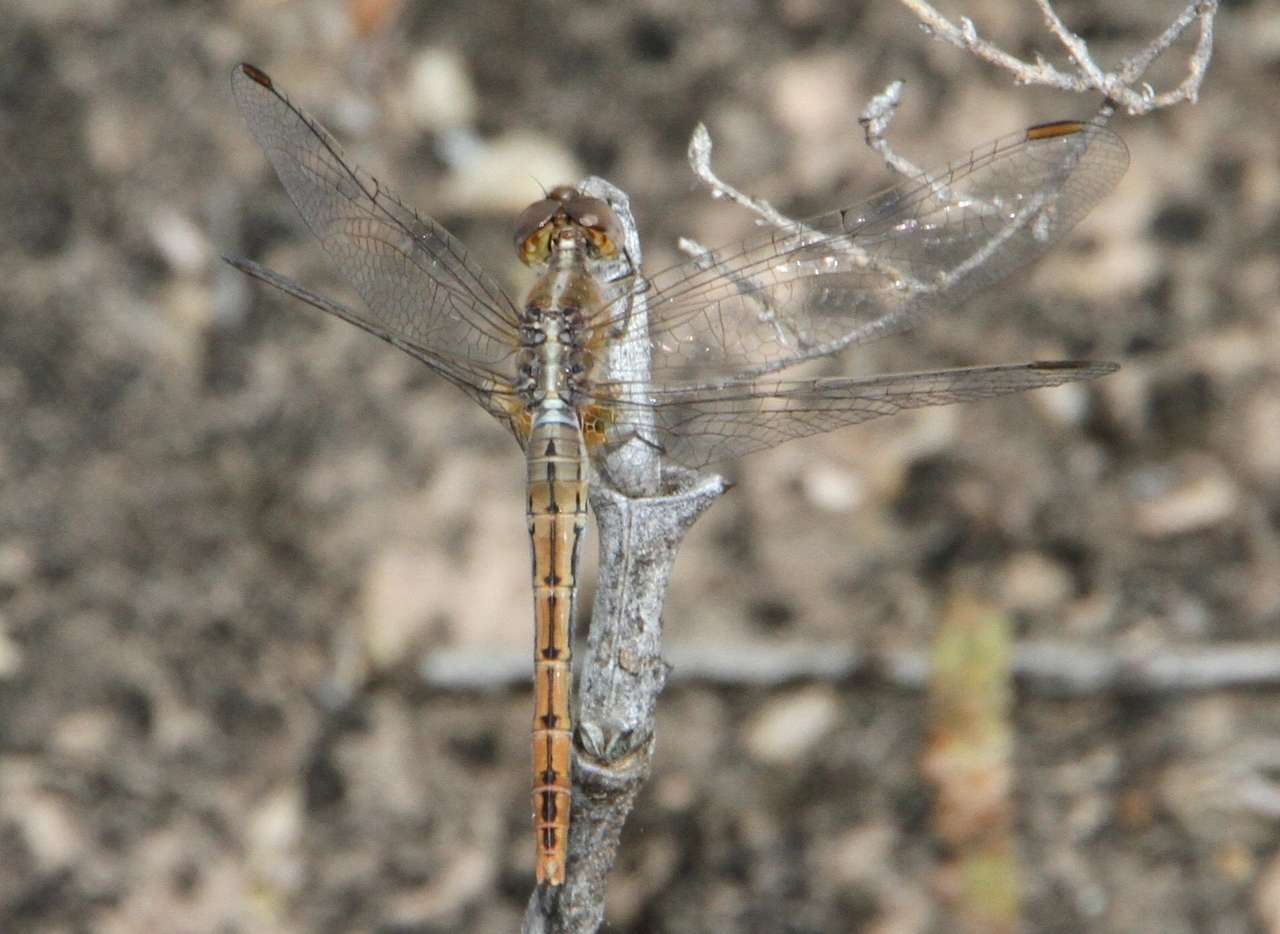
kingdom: Animalia
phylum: Arthropoda
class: Insecta
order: Odonata
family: Libellulidae
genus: Diplacodes
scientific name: Diplacodes bipunctata
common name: Red percher dragonfly
